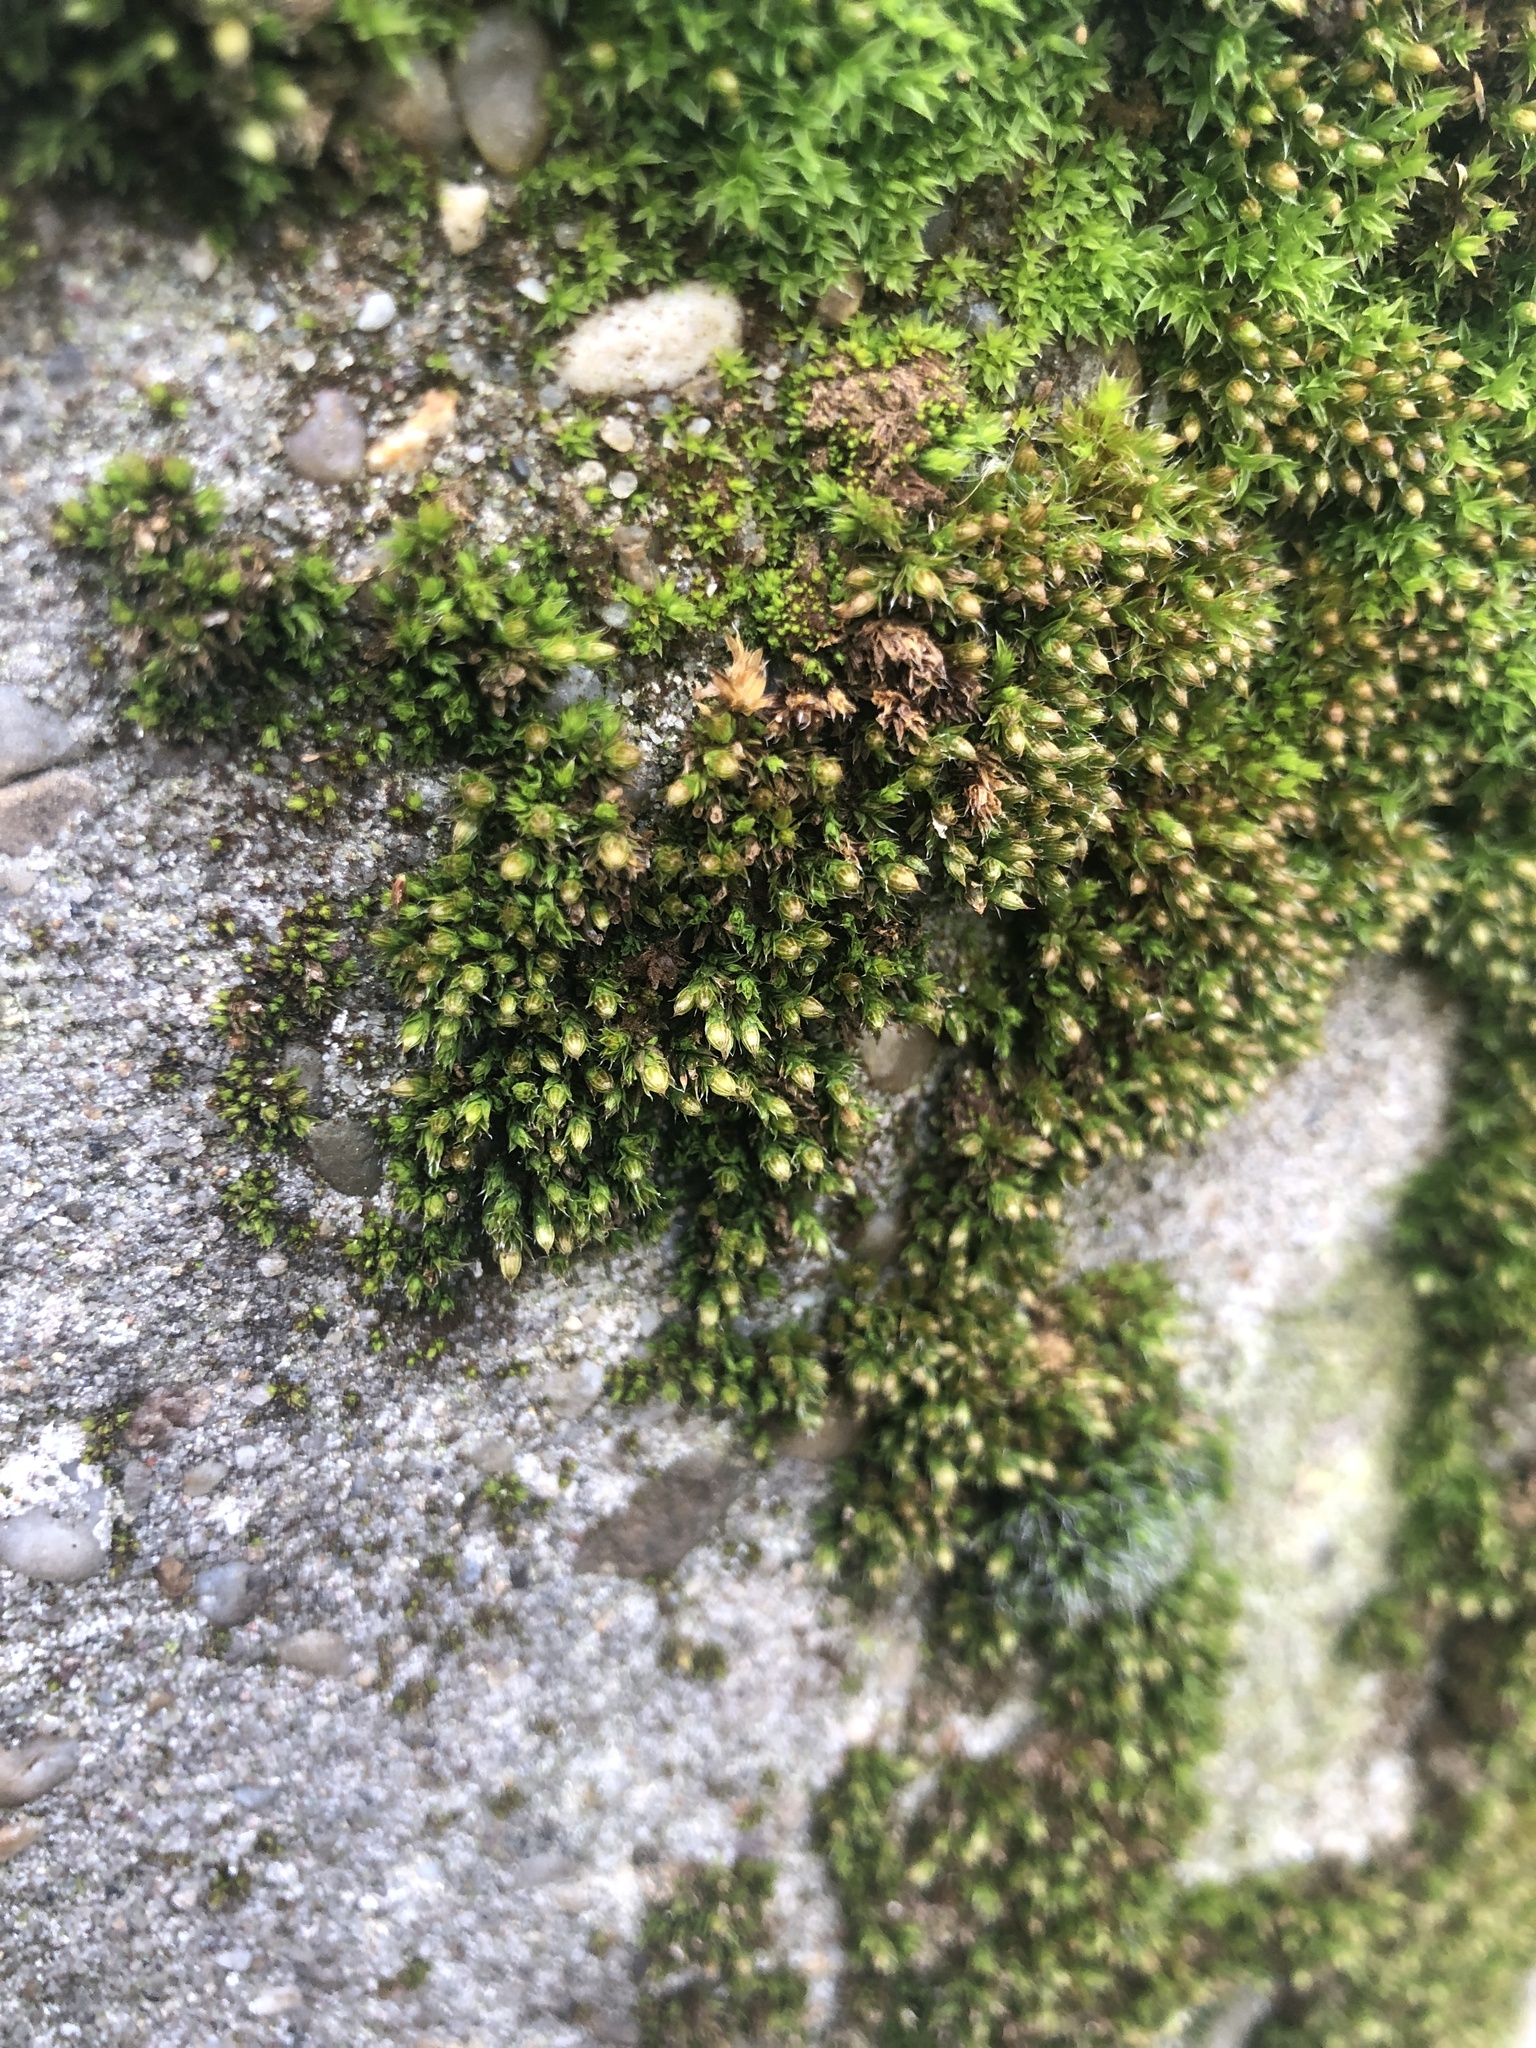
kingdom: Plantae
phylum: Bryophyta
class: Bryopsida
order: Orthotrichales
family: Orthotrichaceae
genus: Orthotrichum
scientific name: Orthotrichum diaphanum
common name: White-tipped bristle-moss
